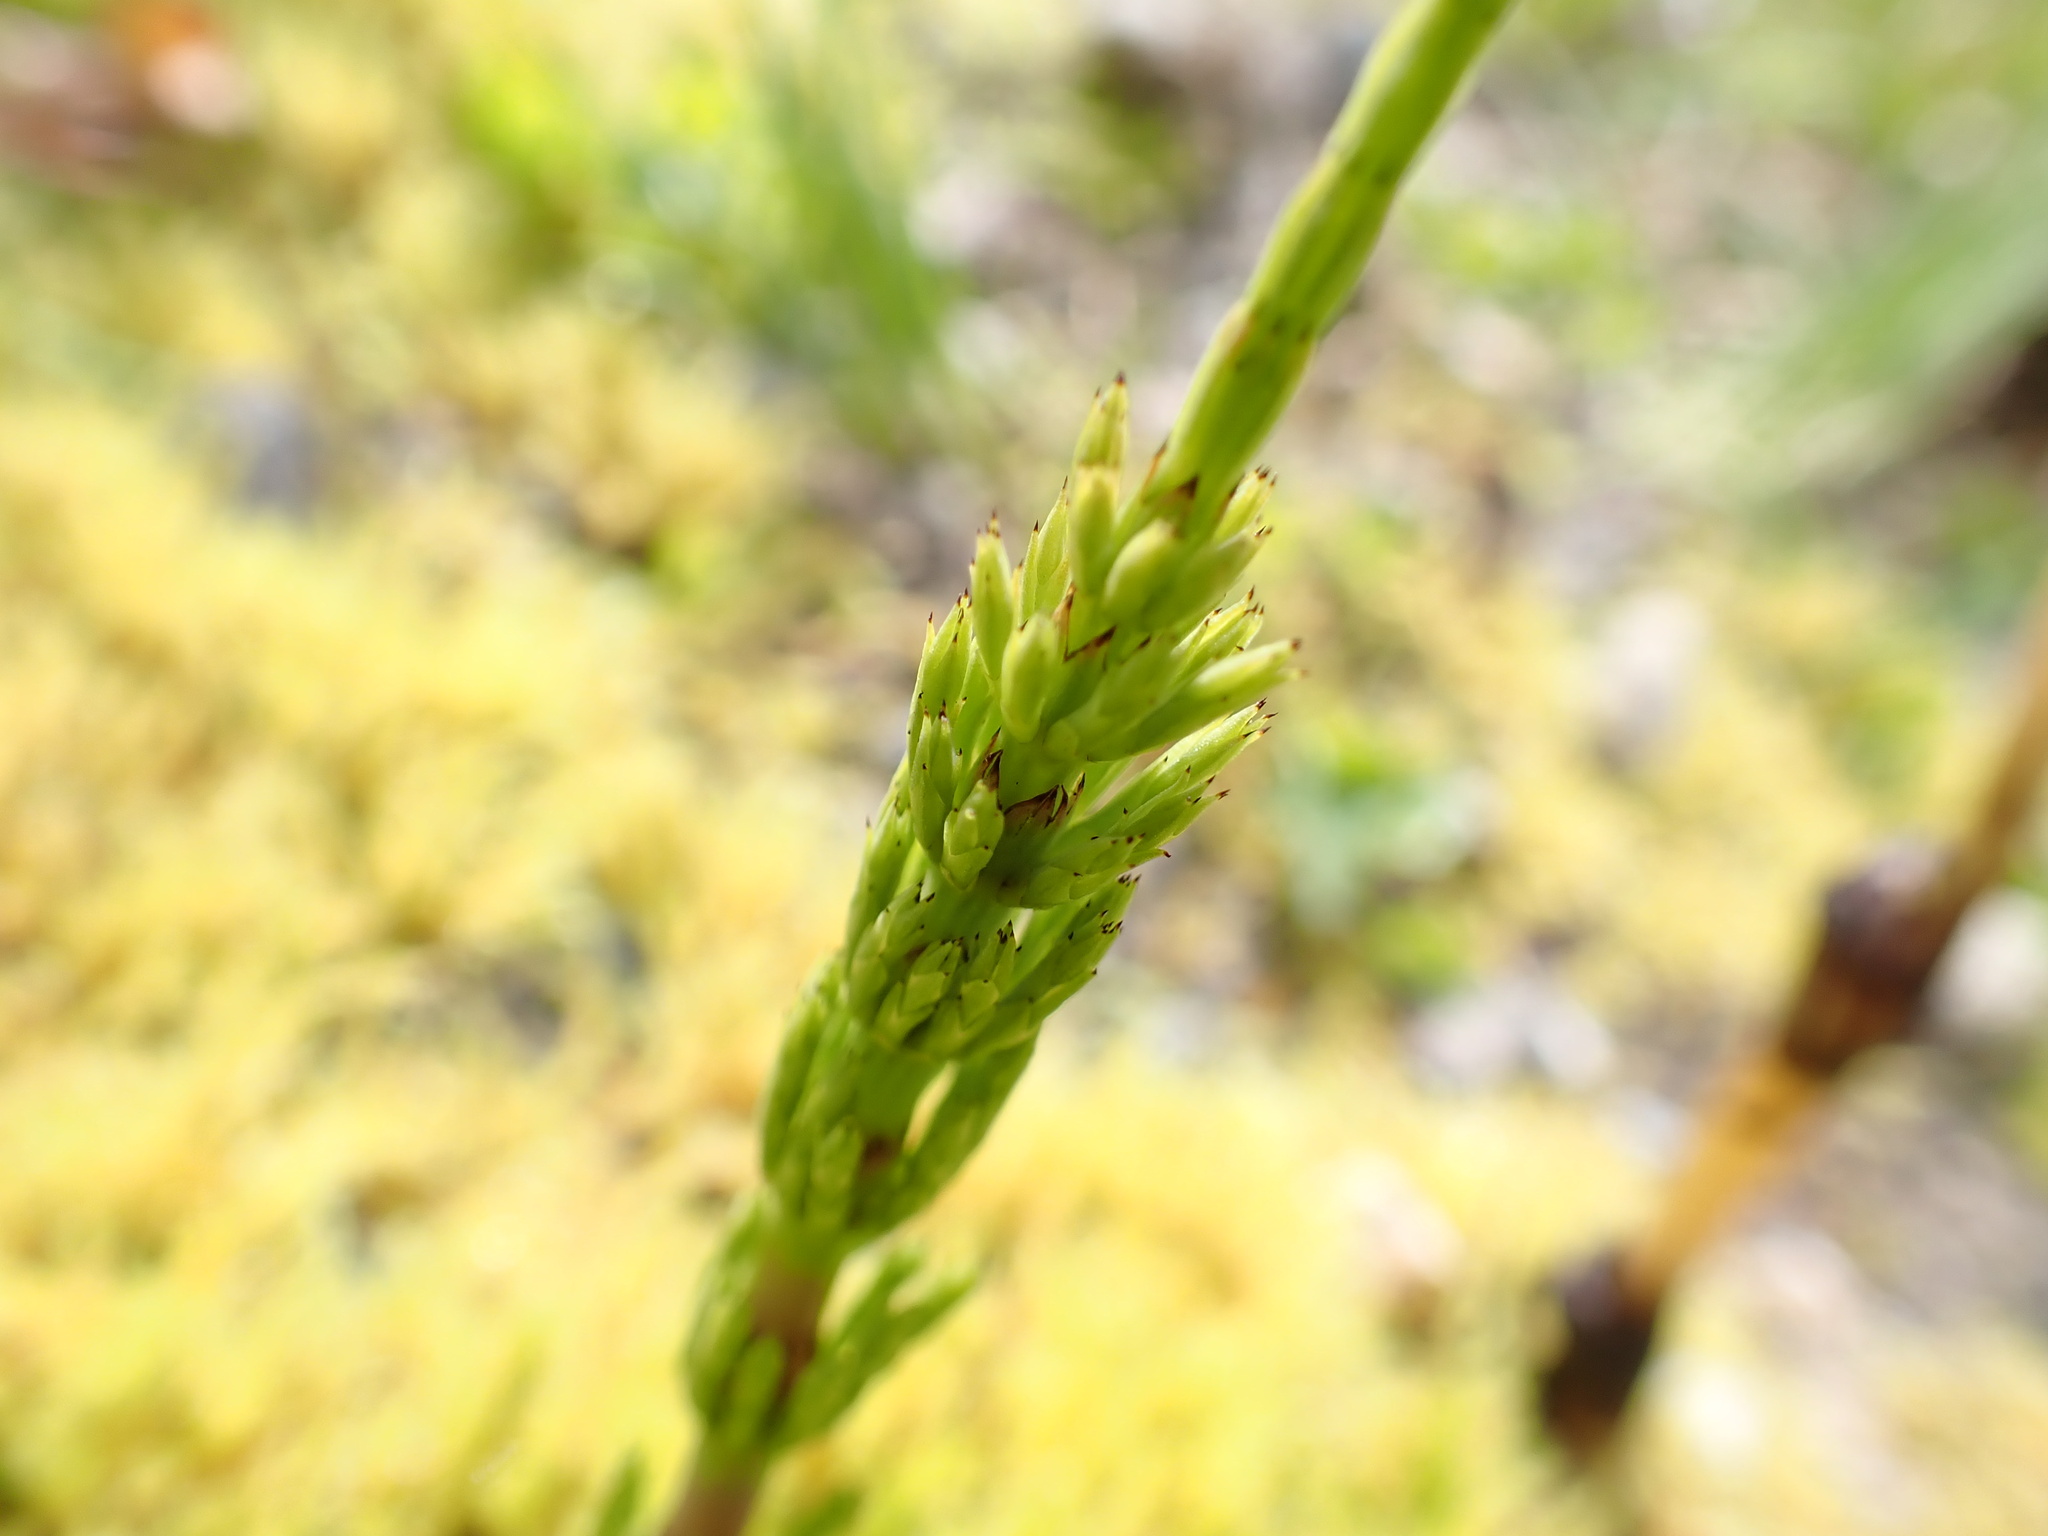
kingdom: Plantae
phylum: Tracheophyta
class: Polypodiopsida
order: Equisetales
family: Equisetaceae
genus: Equisetum
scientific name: Equisetum arvense
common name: Field horsetail
